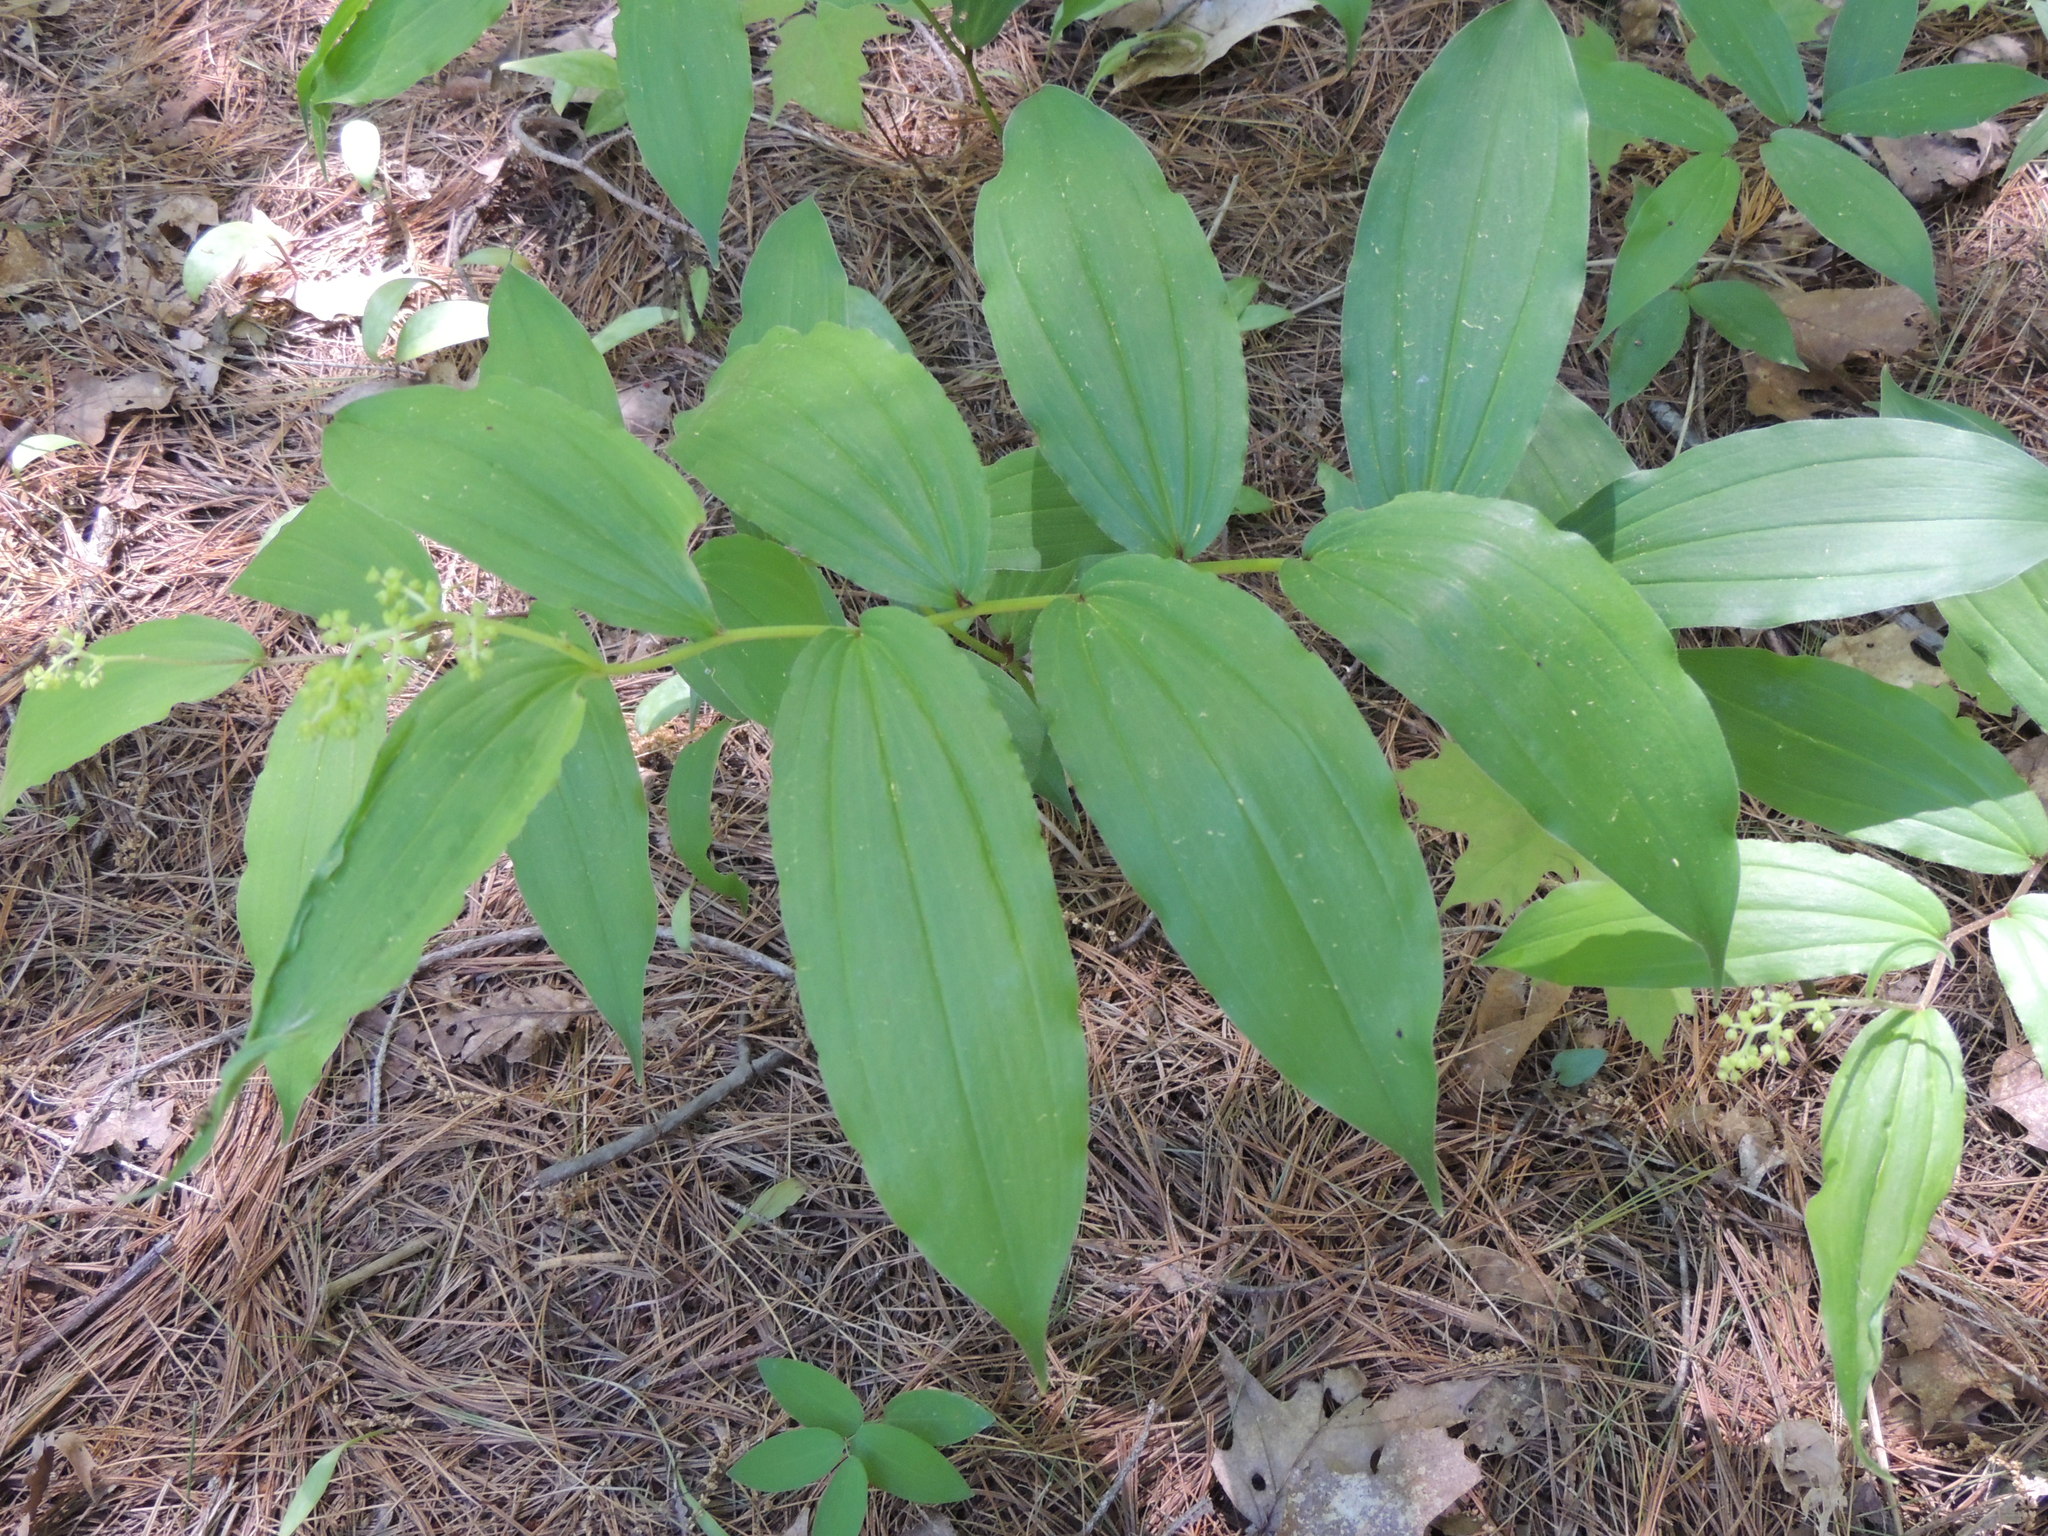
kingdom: Plantae
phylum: Tracheophyta
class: Liliopsida
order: Asparagales
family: Asparagaceae
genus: Maianthemum
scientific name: Maianthemum racemosum
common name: False spikenard
